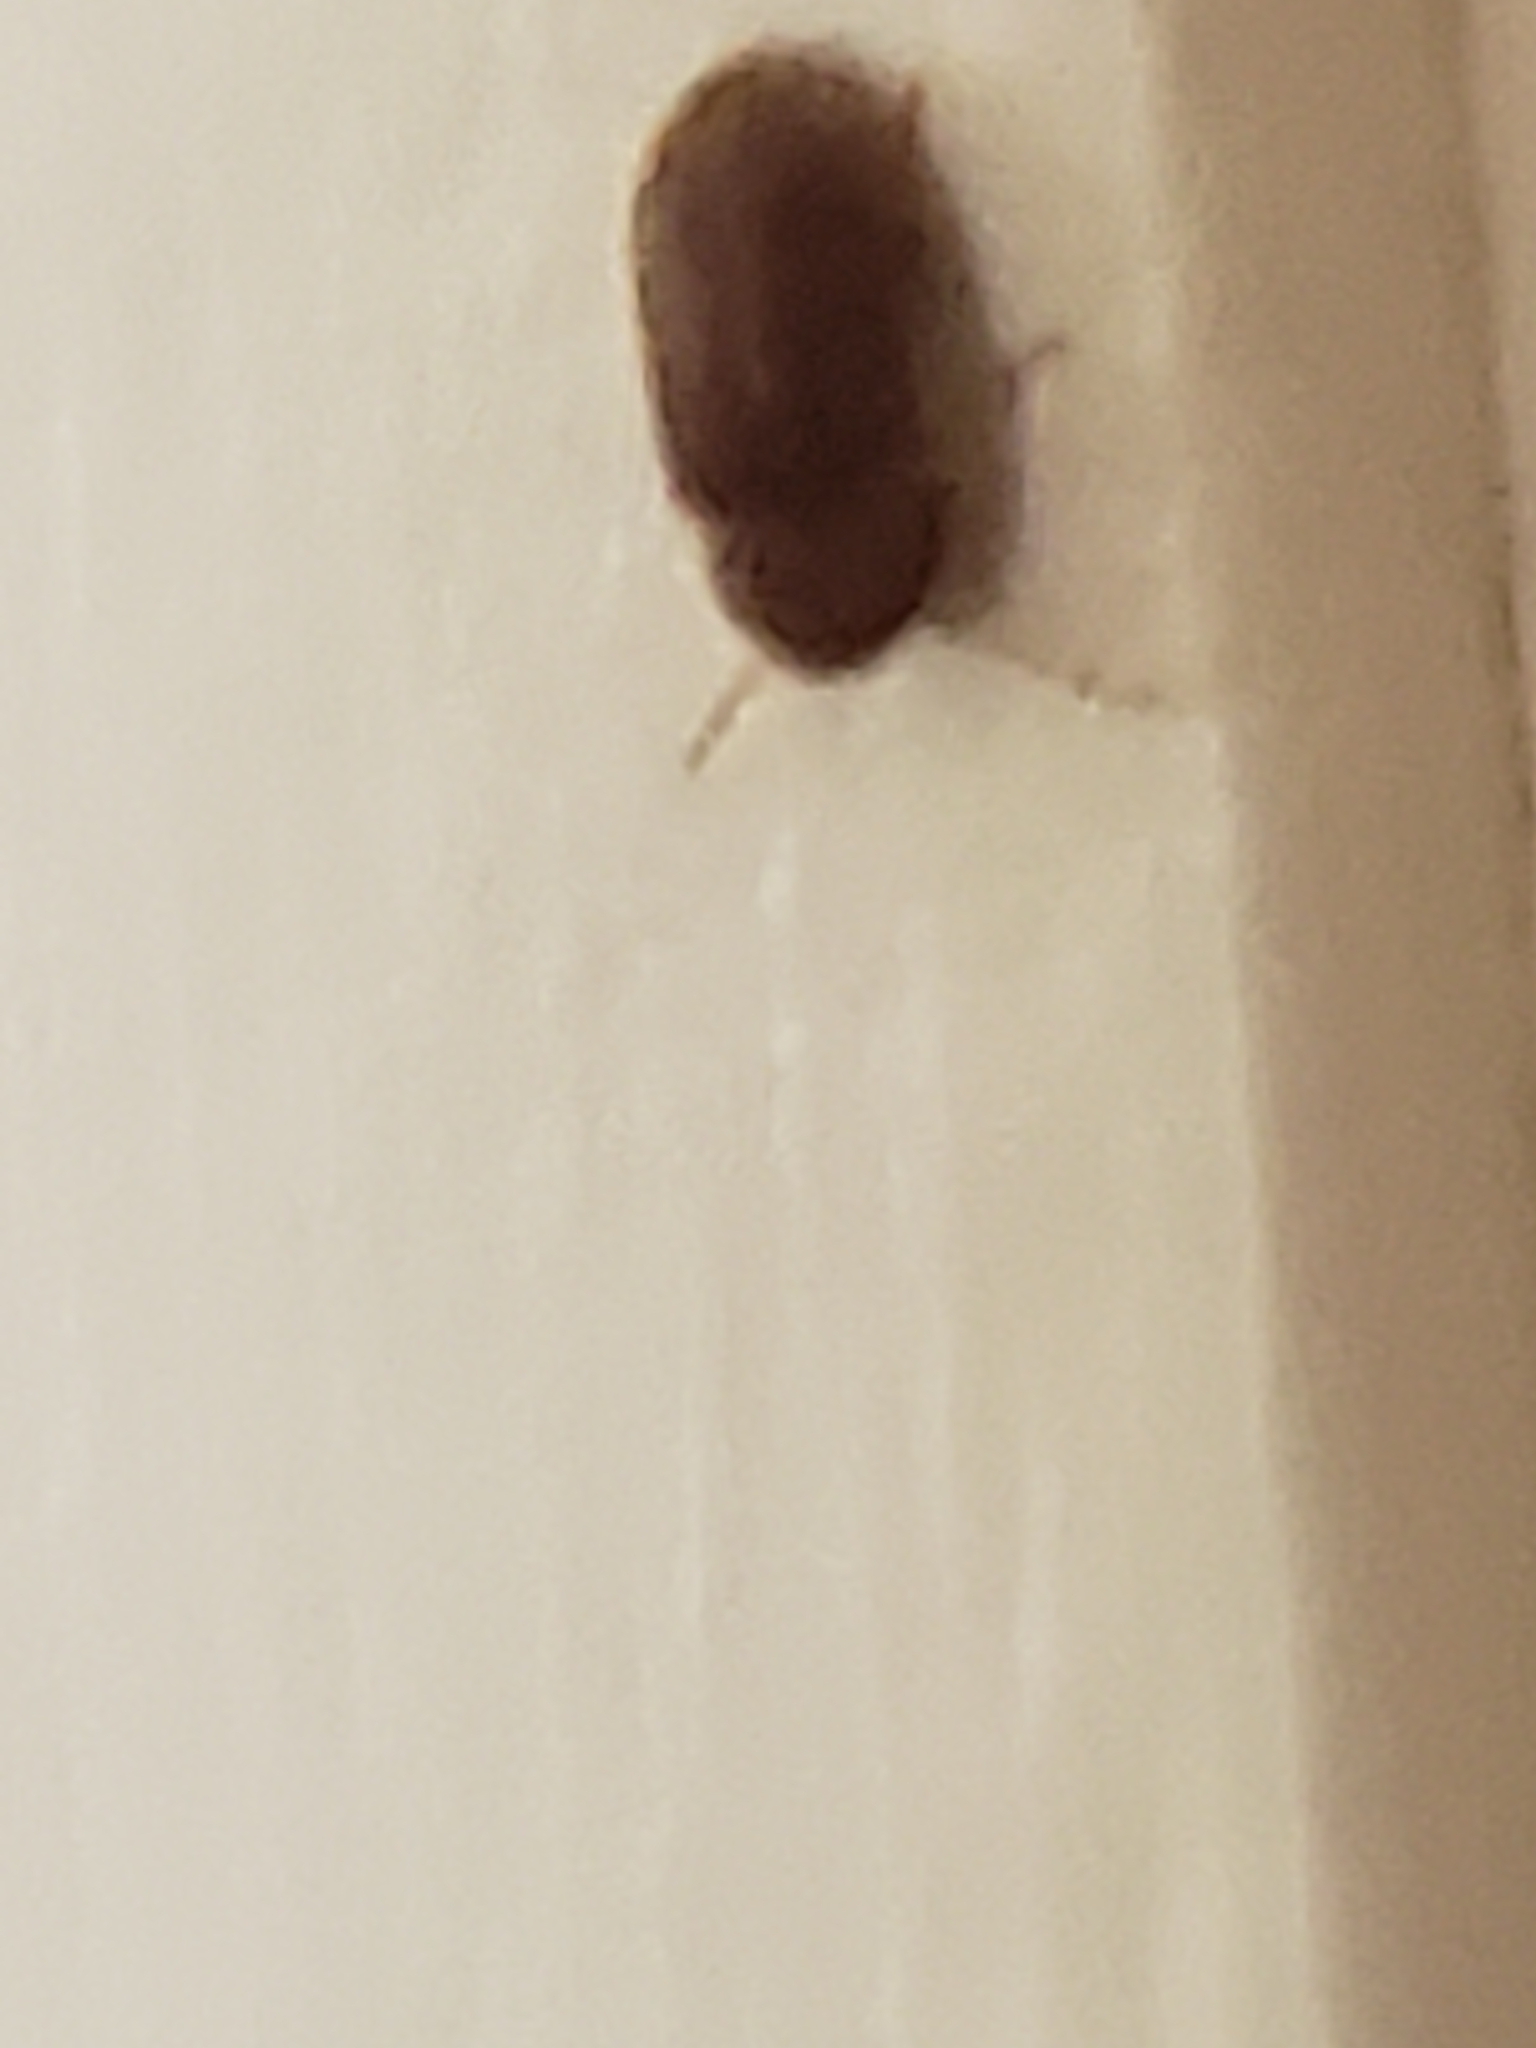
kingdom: Animalia
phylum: Arthropoda
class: Insecta
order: Coleoptera
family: Anobiidae
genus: Stegobium
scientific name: Stegobium paniceum
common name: Drugstore beetle
